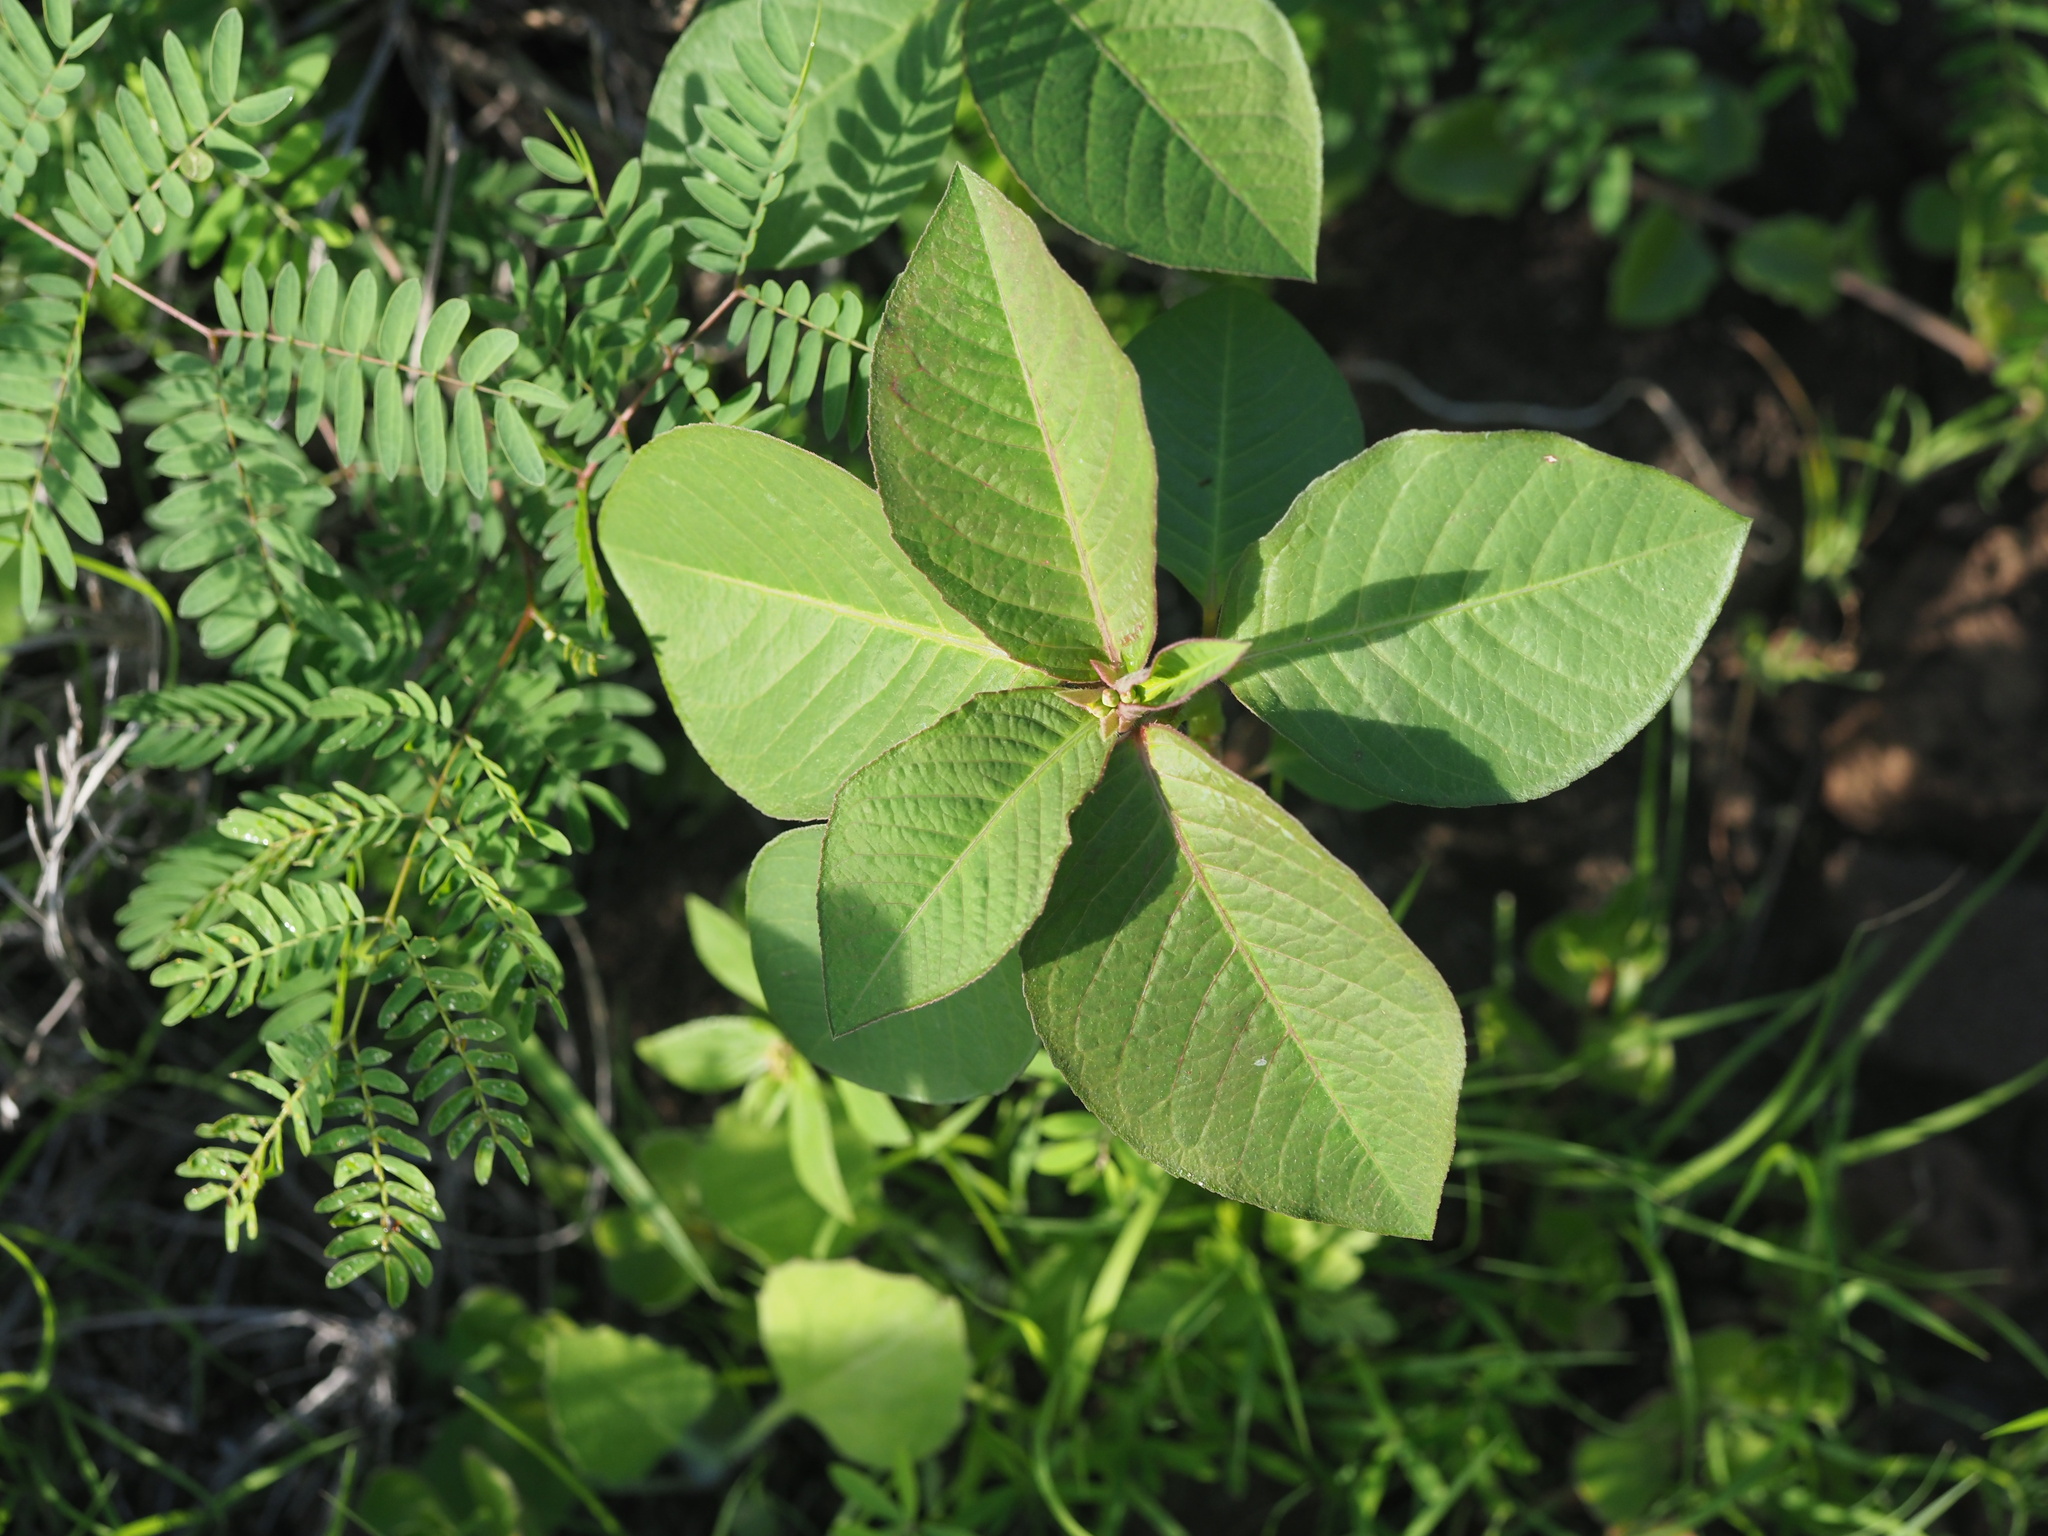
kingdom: Plantae
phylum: Tracheophyta
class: Magnoliopsida
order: Malpighiales
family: Euphorbiaceae
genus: Euphorbia
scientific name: Euphorbia heterophylla
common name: Mexican fireplant
